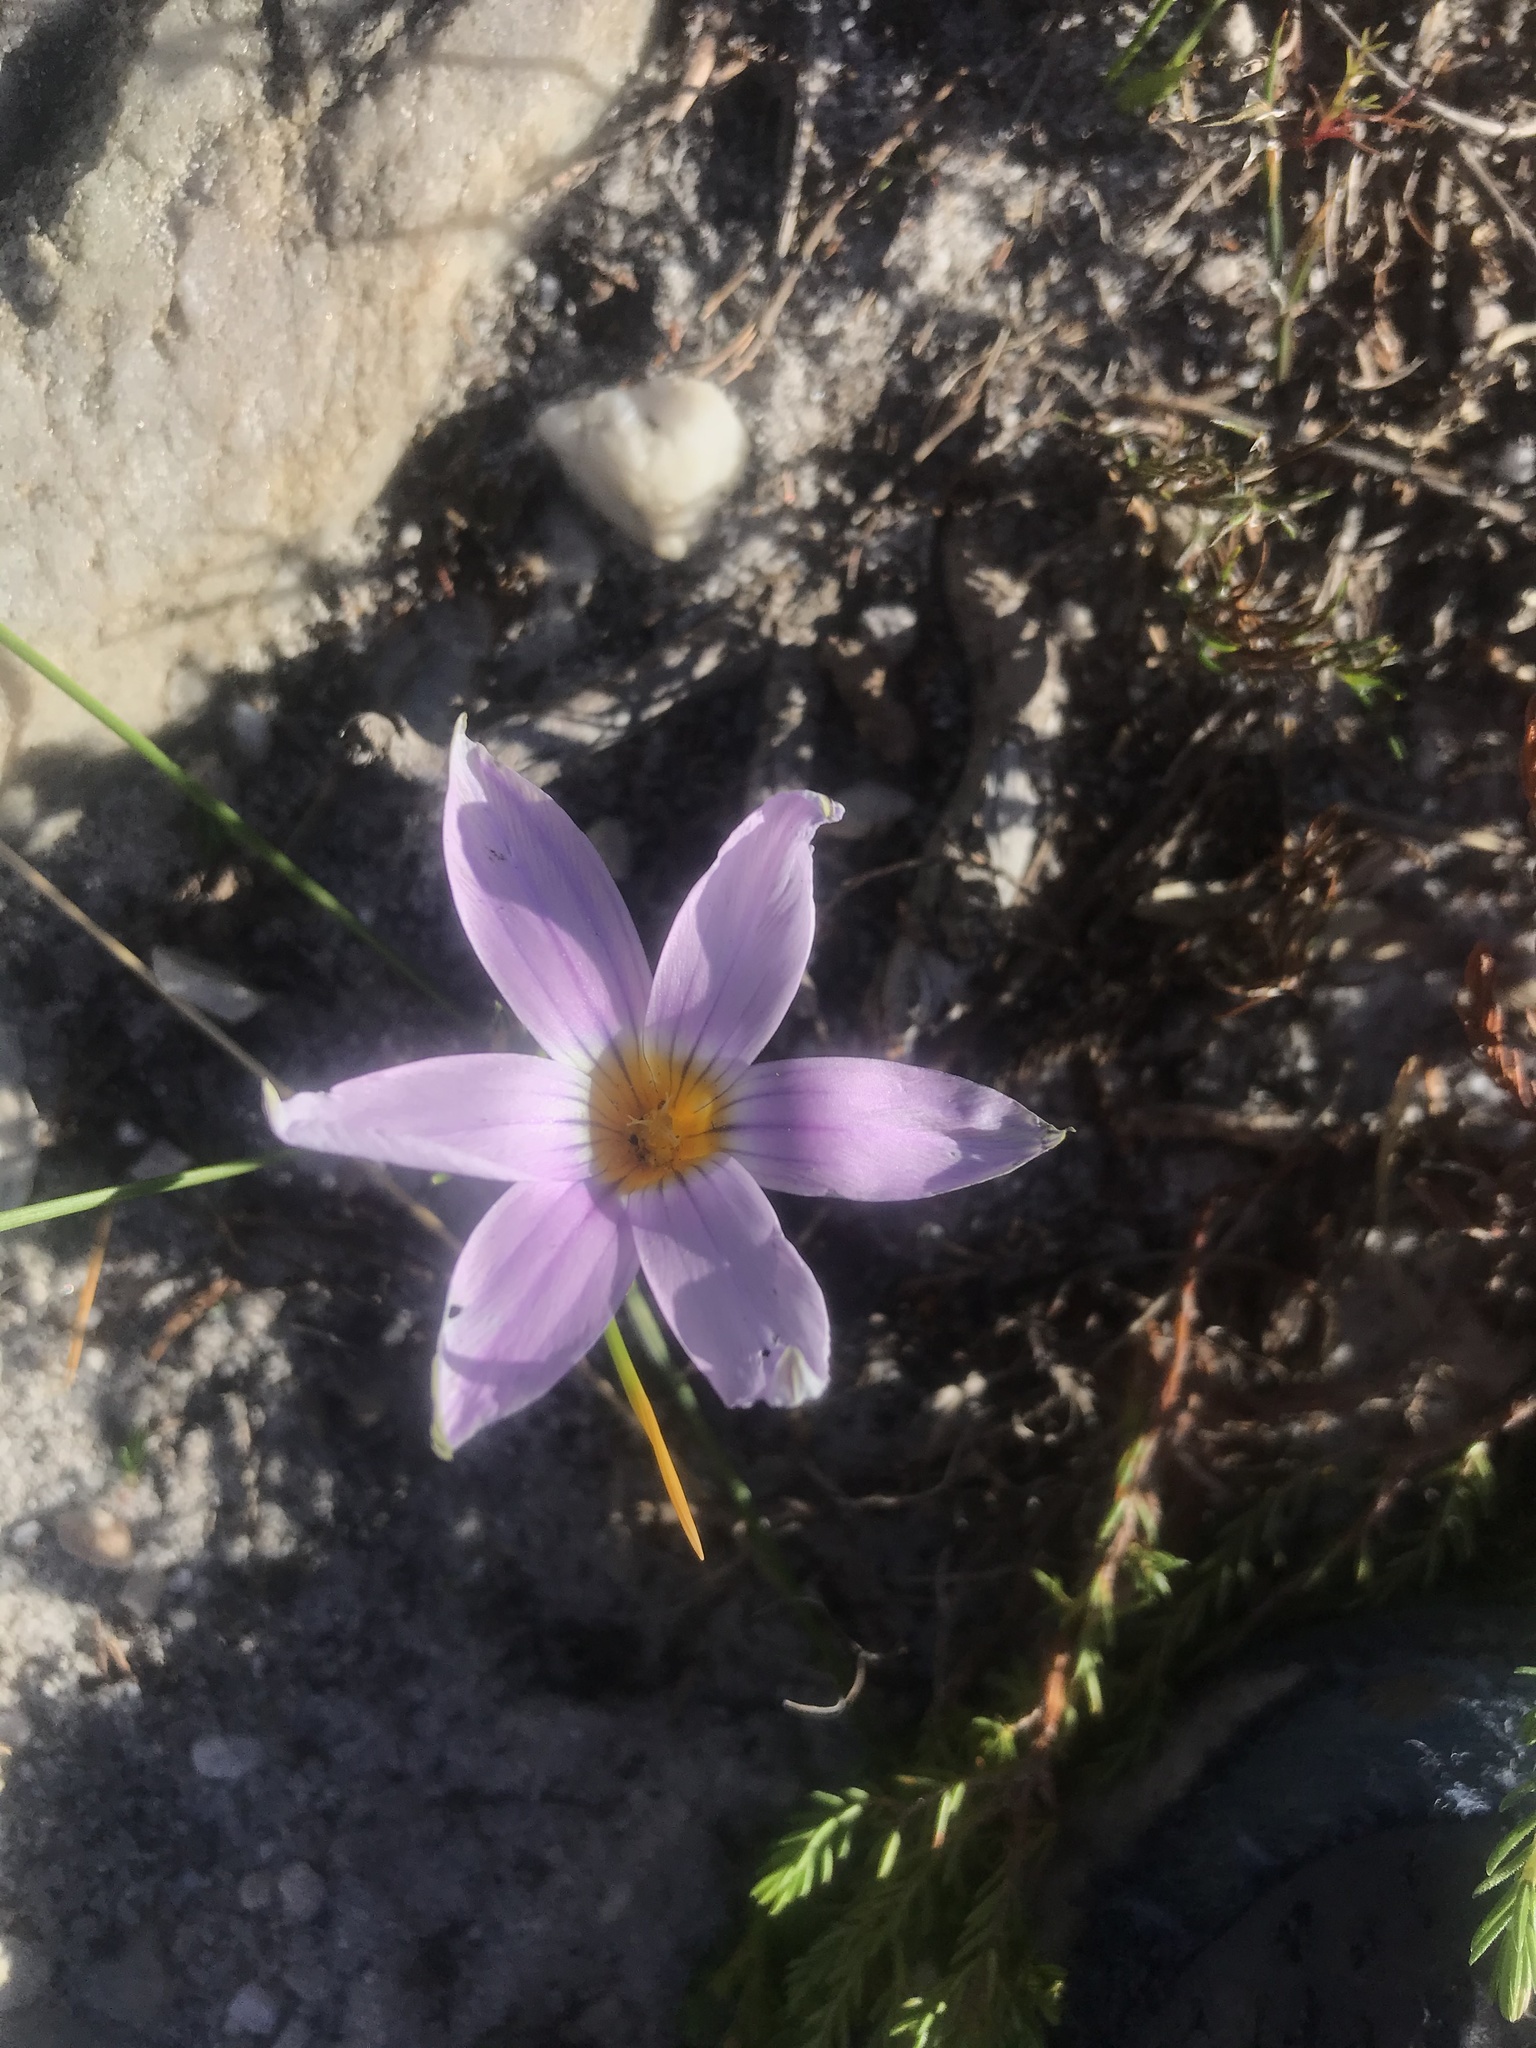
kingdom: Plantae
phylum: Tracheophyta
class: Liliopsida
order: Asparagales
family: Iridaceae
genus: Romulea
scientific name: Romulea rosea
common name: Oniongrass
